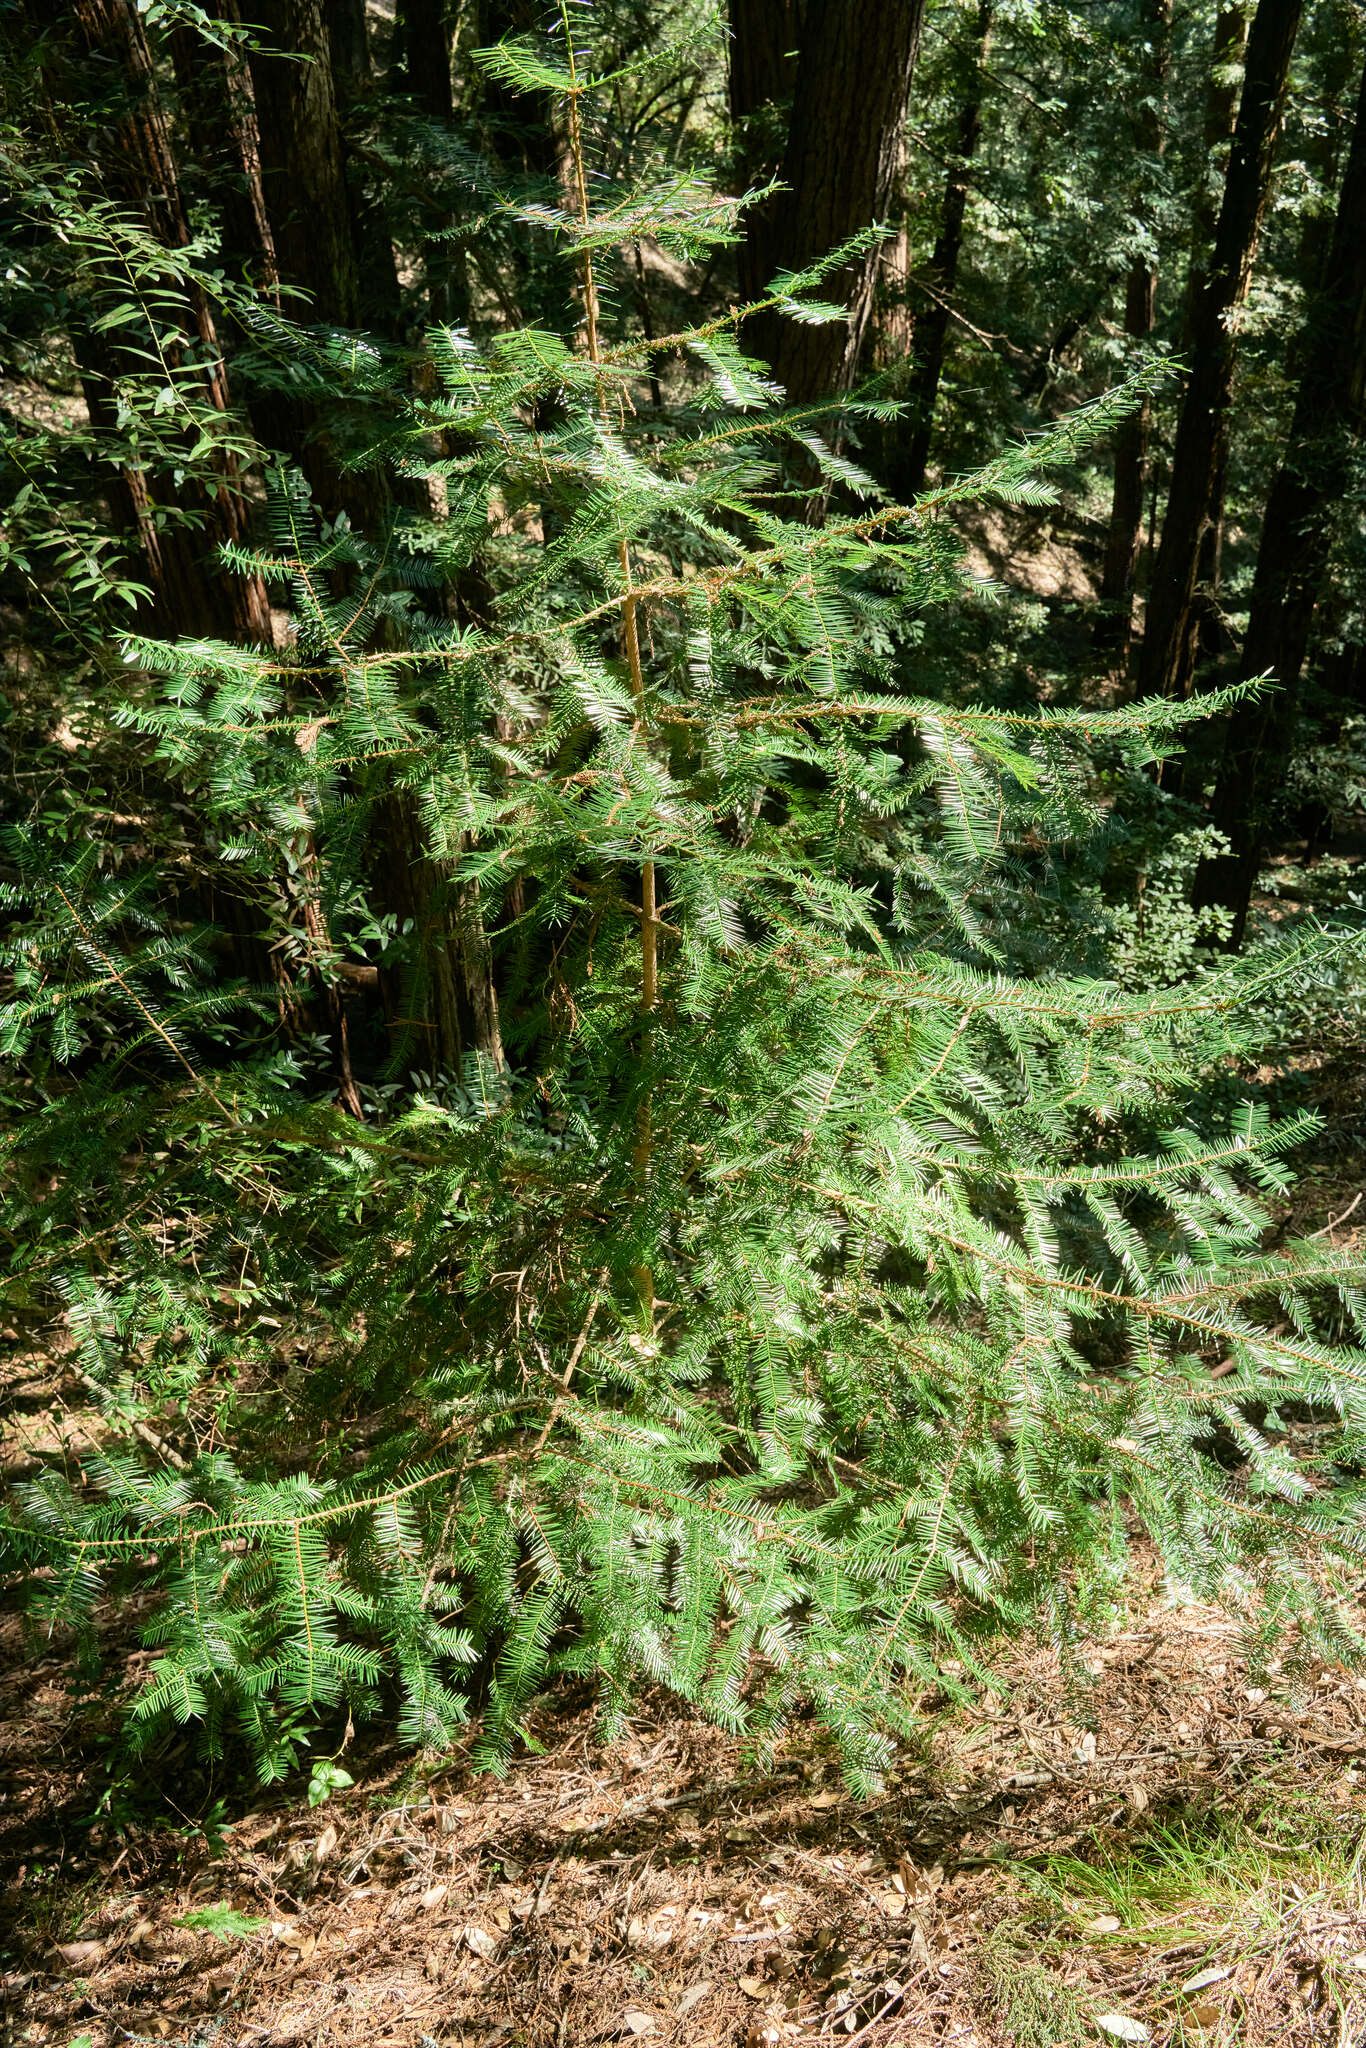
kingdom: Plantae
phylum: Tracheophyta
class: Pinopsida
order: Pinales
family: Taxaceae
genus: Torreya
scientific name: Torreya californica
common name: California torreya
